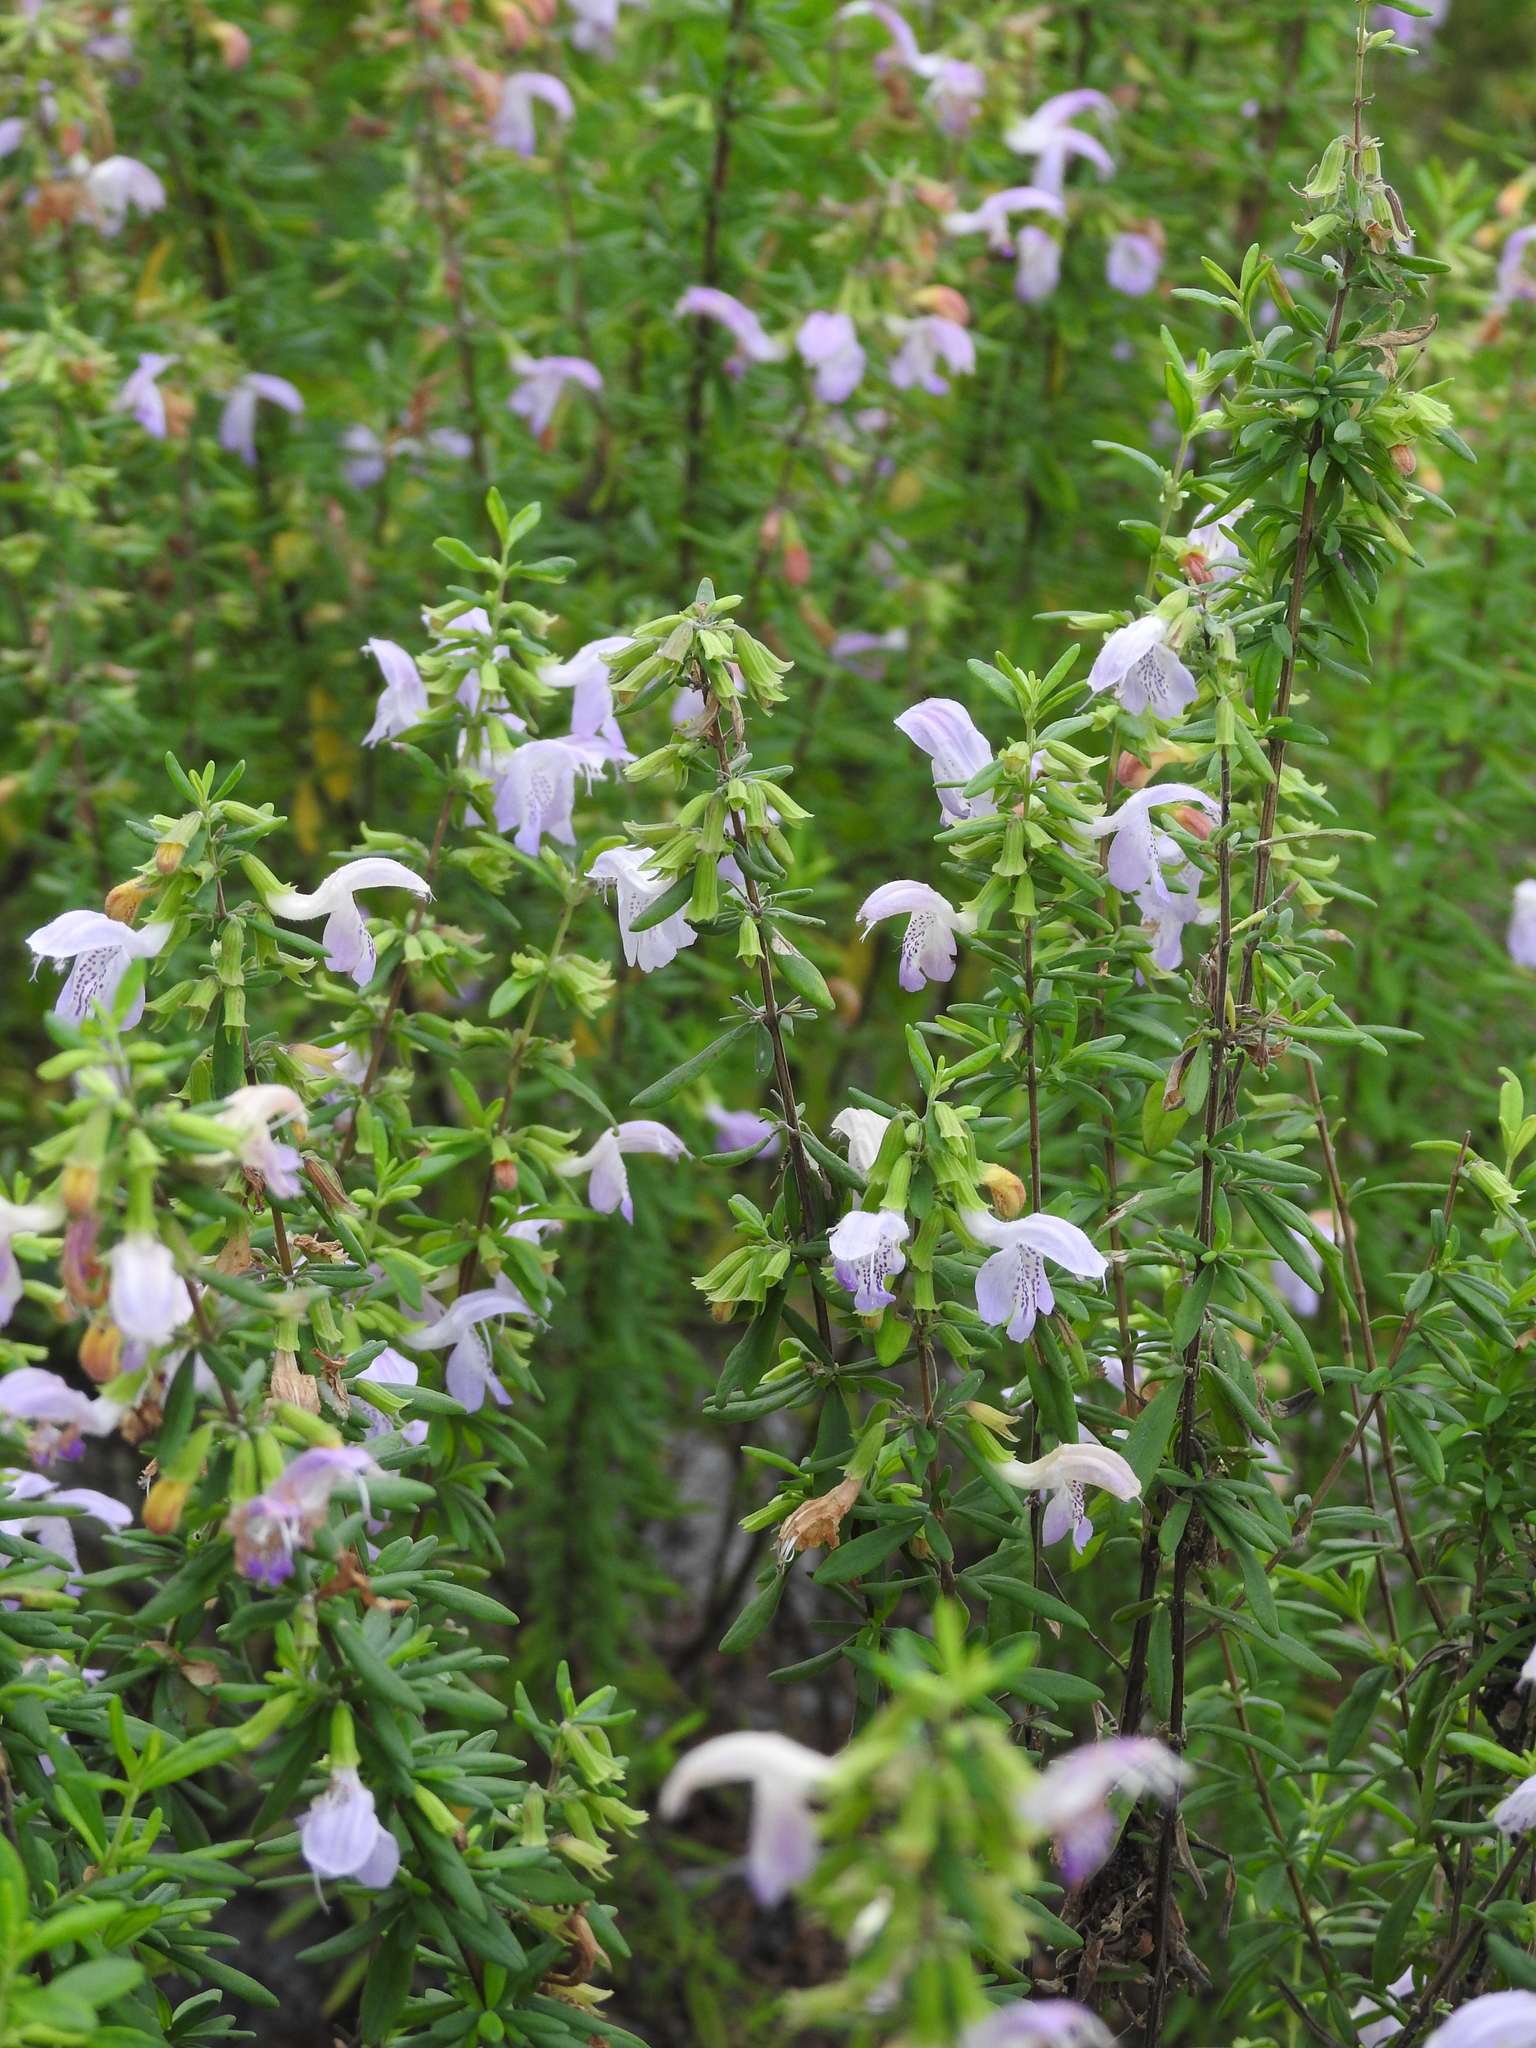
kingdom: Plantae
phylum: Tracheophyta
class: Magnoliopsida
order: Lamiales
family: Lamiaceae
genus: Conradina
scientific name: Conradina grandiflora
